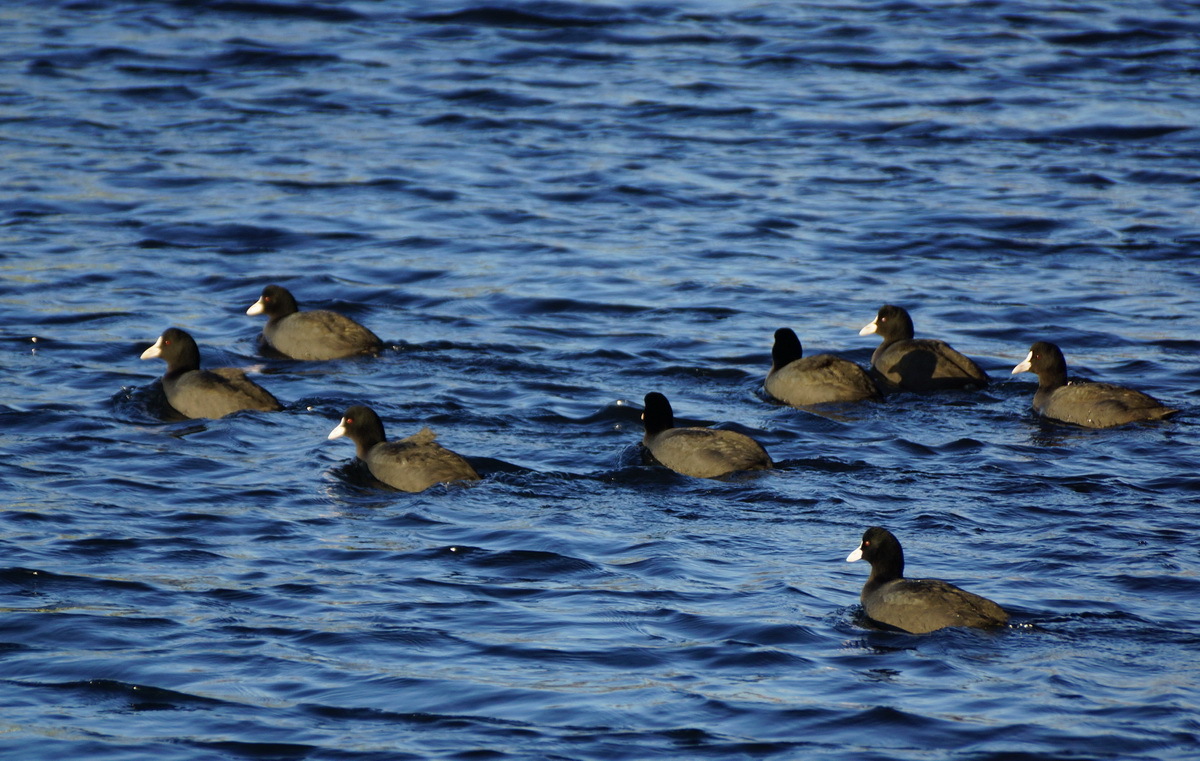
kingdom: Animalia
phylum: Chordata
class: Aves
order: Gruiformes
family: Rallidae
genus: Fulica
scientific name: Fulica atra
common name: Eurasian coot
